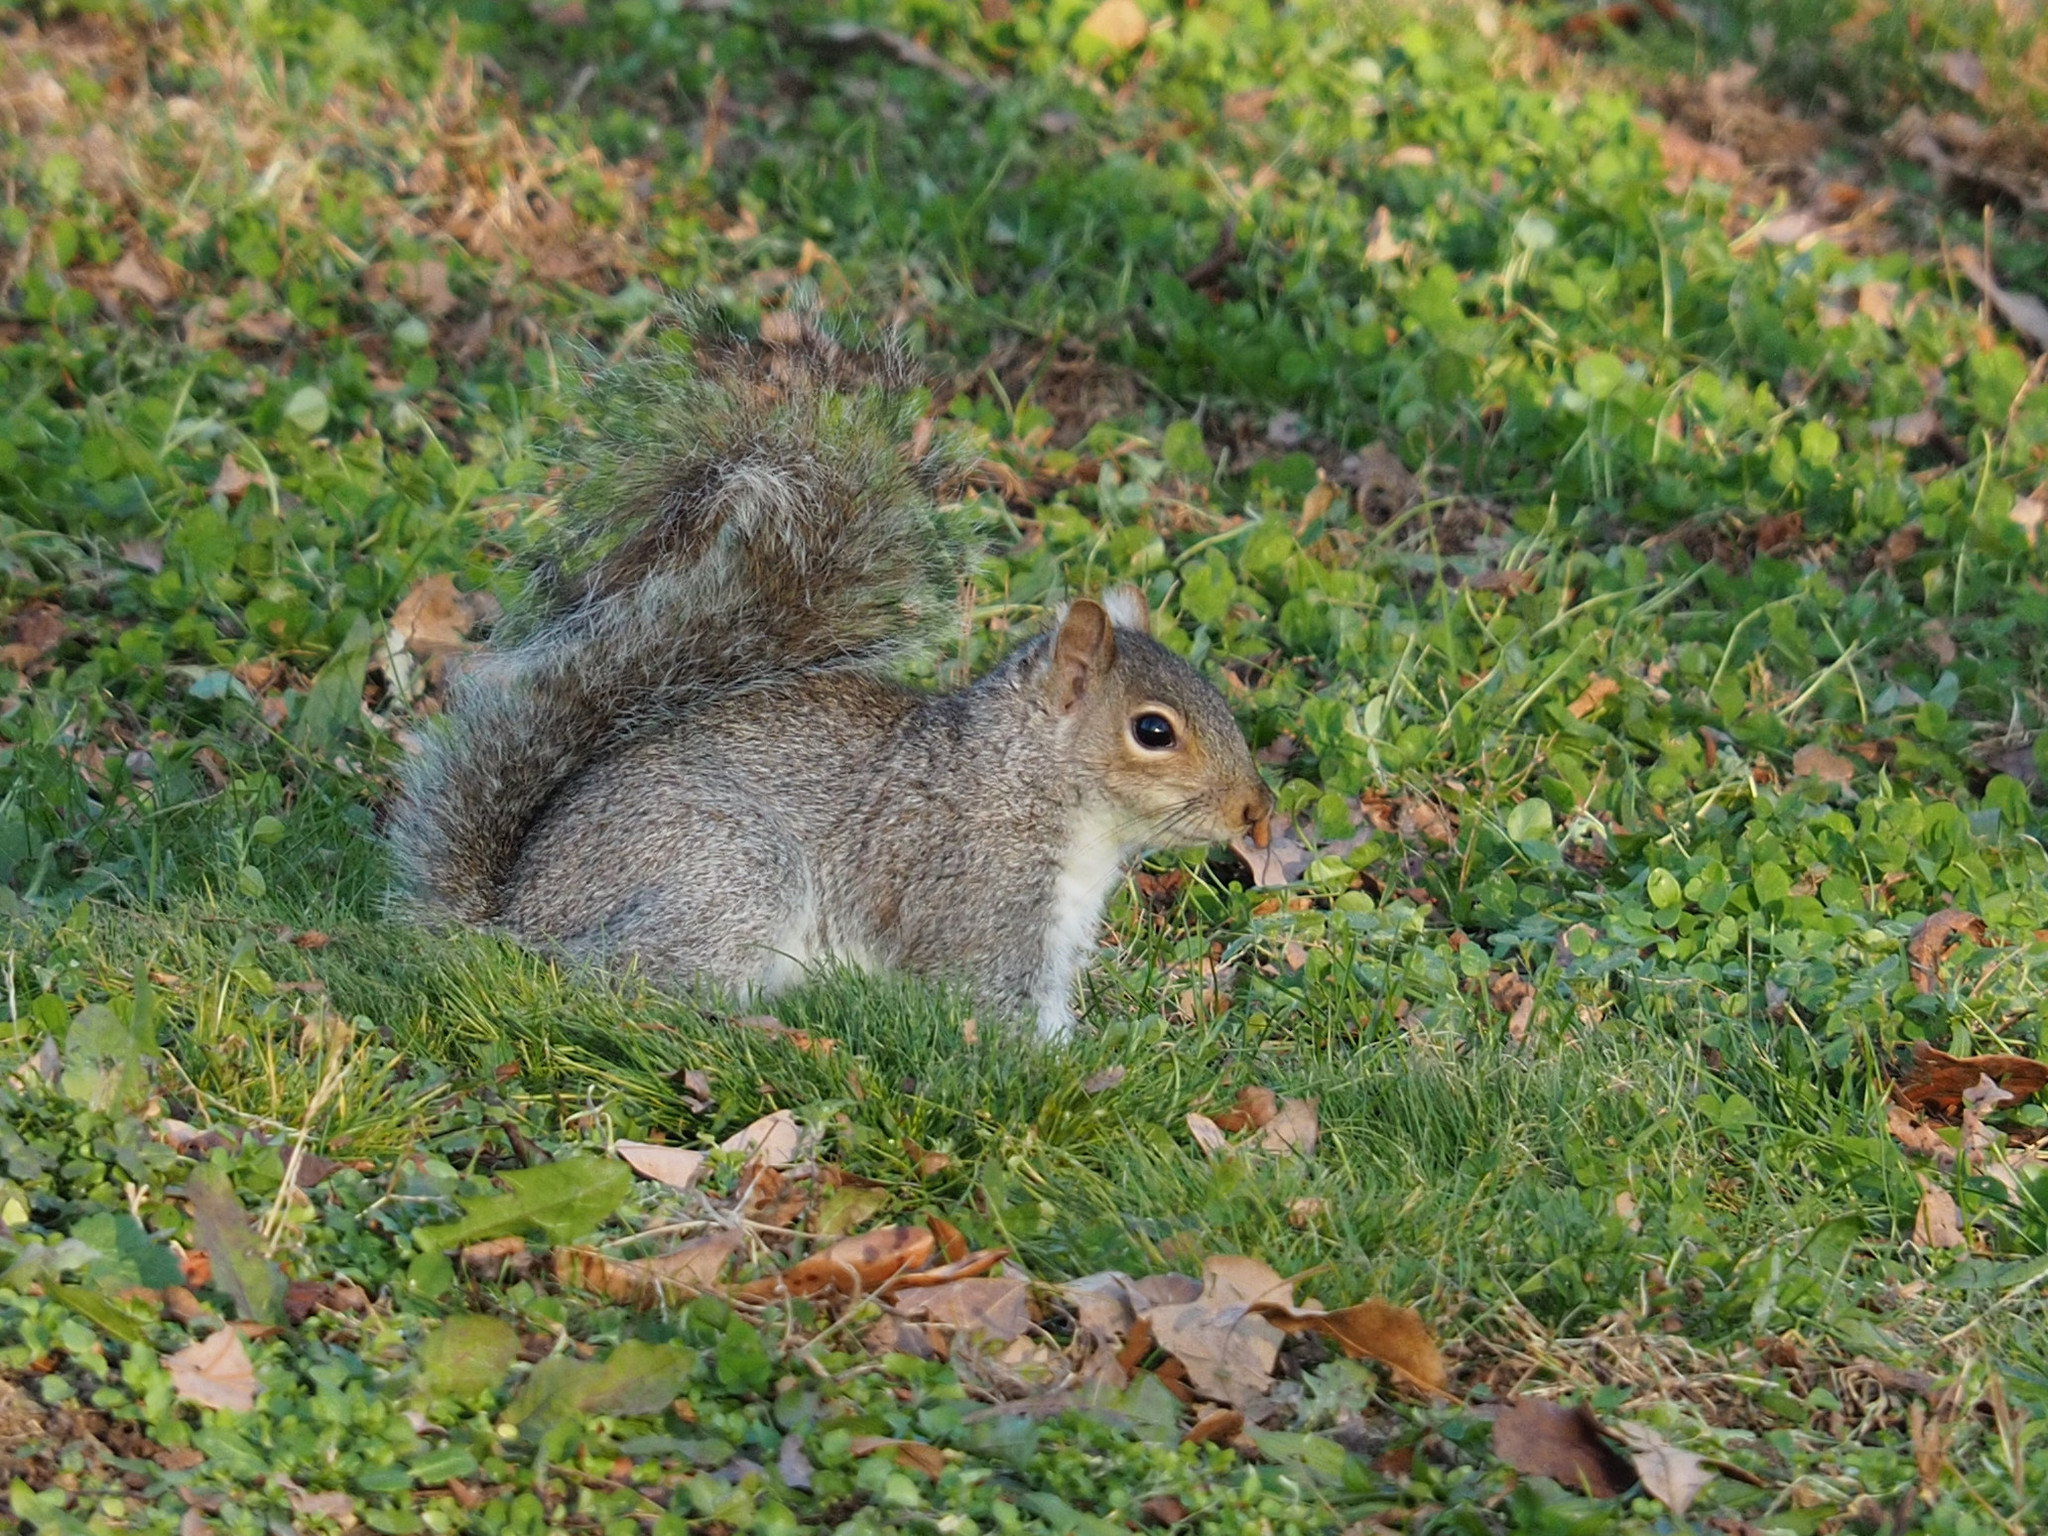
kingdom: Animalia
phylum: Chordata
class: Mammalia
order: Rodentia
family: Sciuridae
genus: Sciurus
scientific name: Sciurus carolinensis
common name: Eastern gray squirrel
